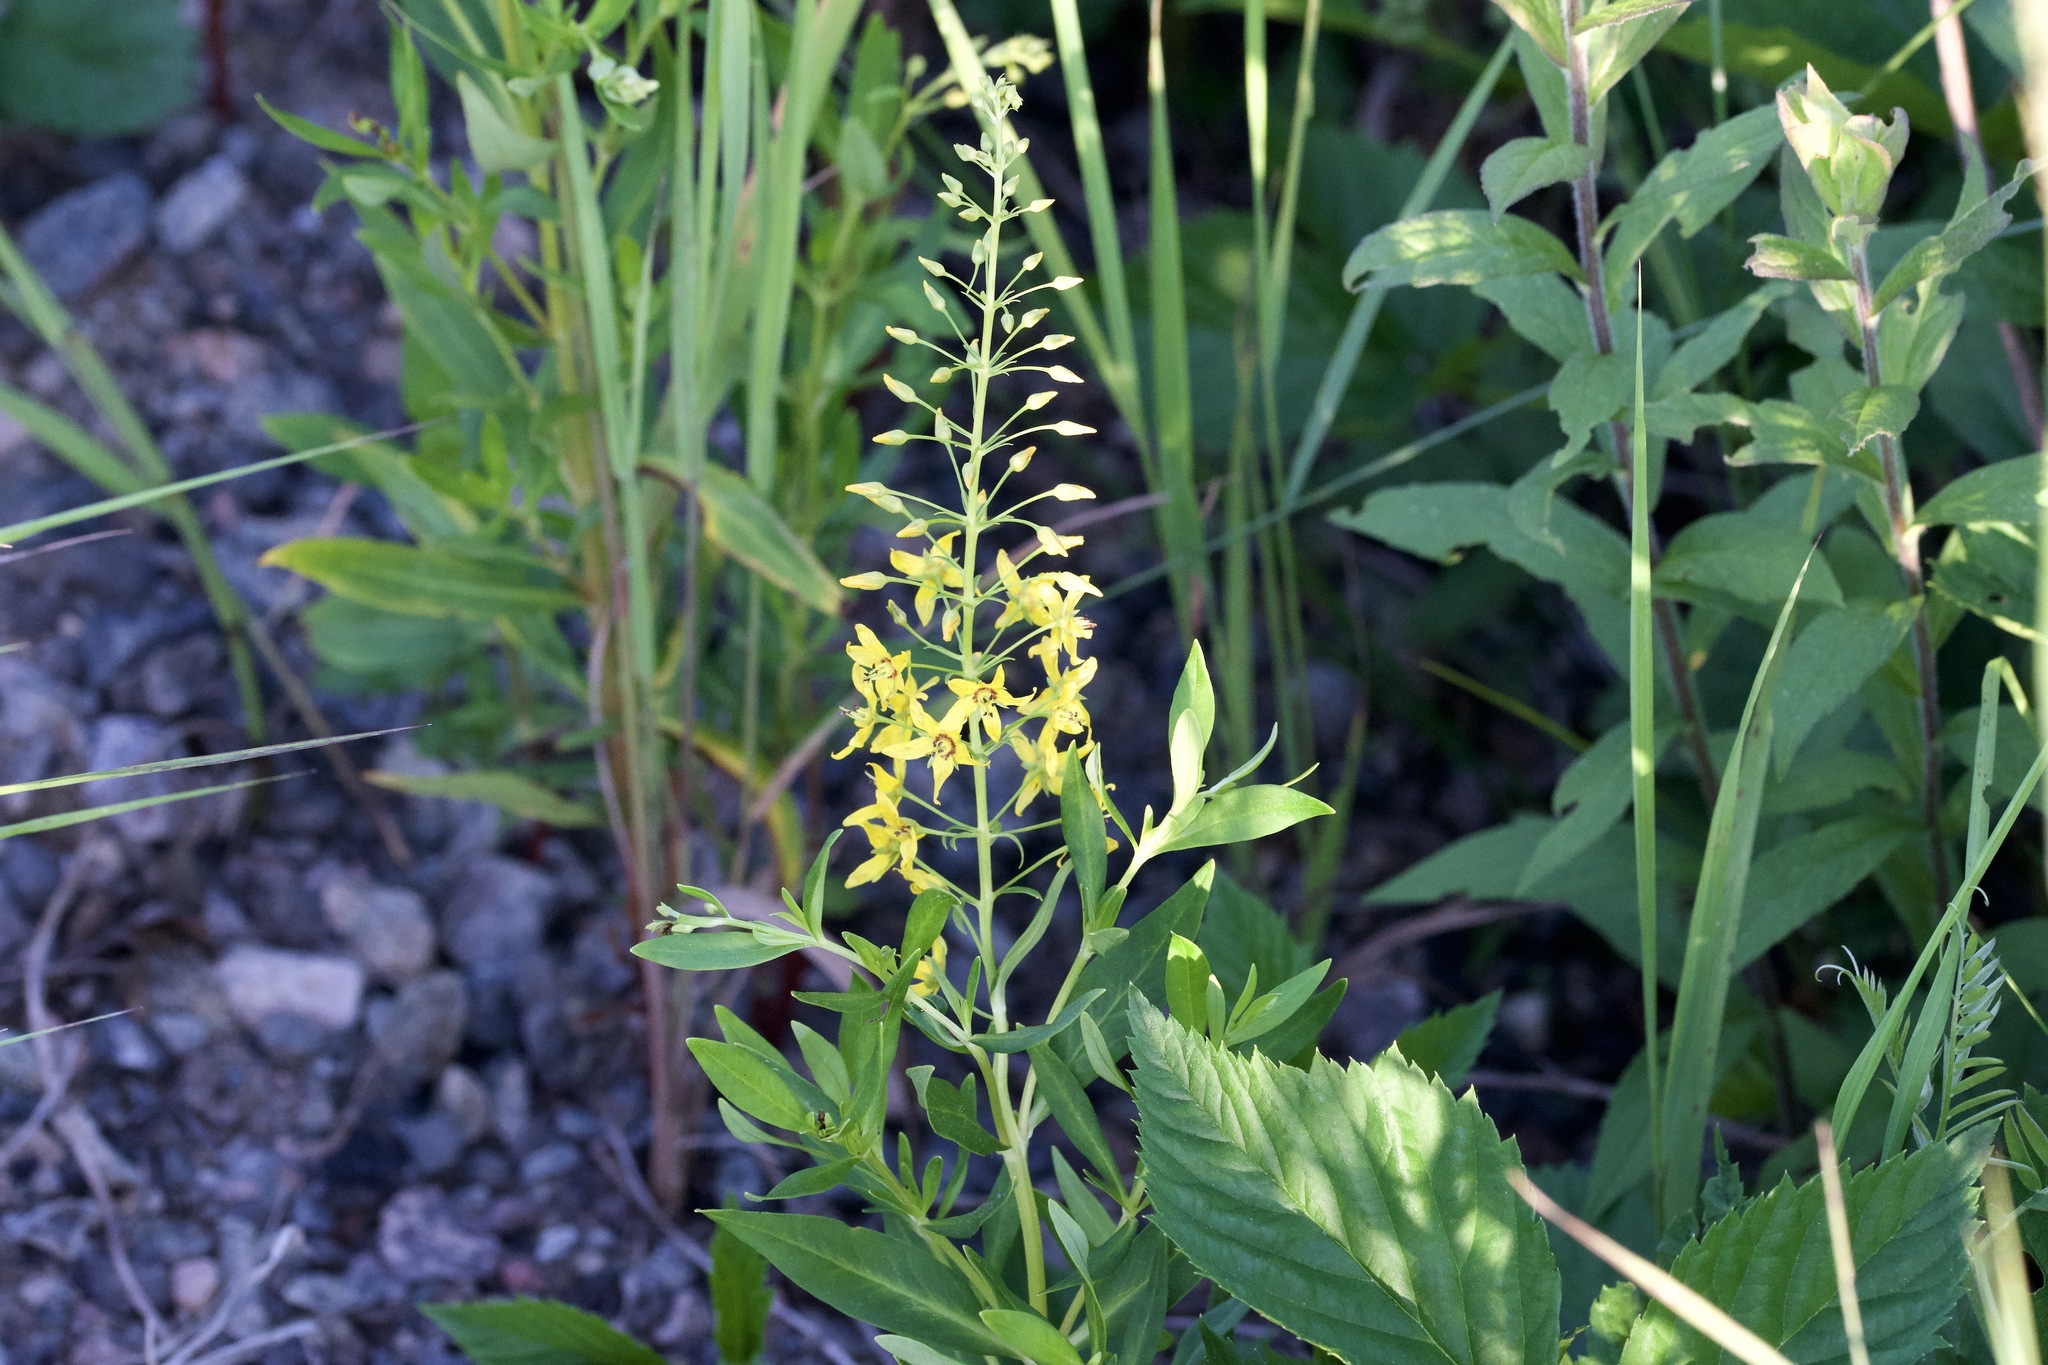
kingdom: Plantae
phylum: Tracheophyta
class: Magnoliopsida
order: Ericales
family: Primulaceae
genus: Lysimachia
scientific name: Lysimachia terrestris
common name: Lake loosestrife
